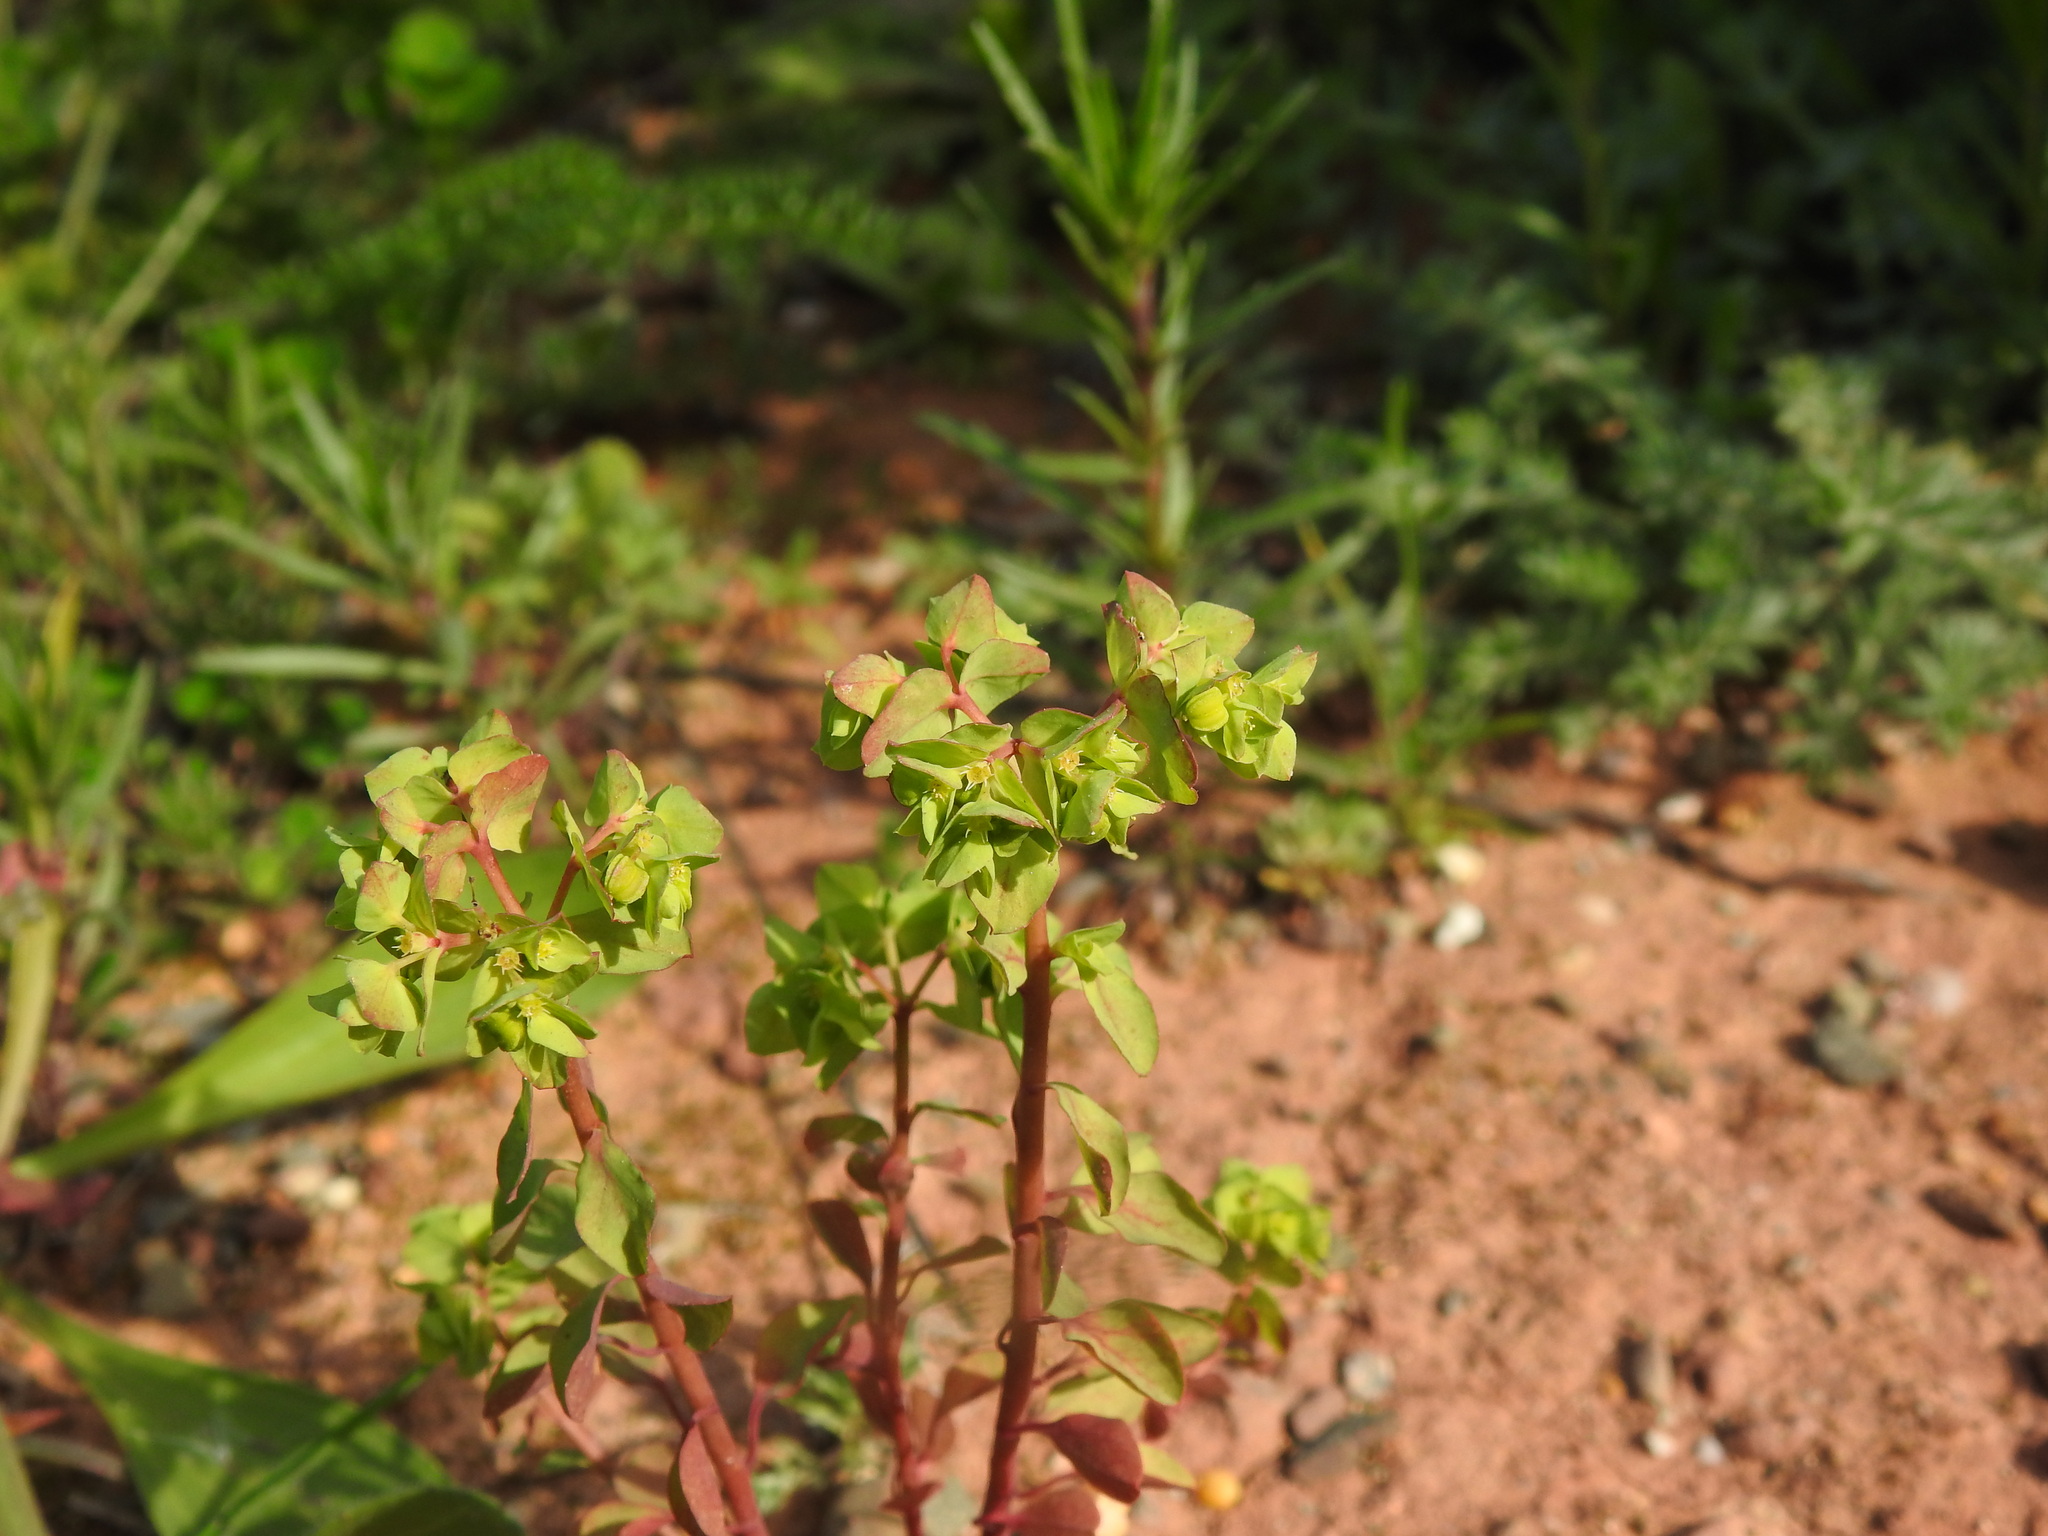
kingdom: Plantae
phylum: Tracheophyta
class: Magnoliopsida
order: Malpighiales
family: Euphorbiaceae
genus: Euphorbia
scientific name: Euphorbia peplus
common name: Petty spurge
